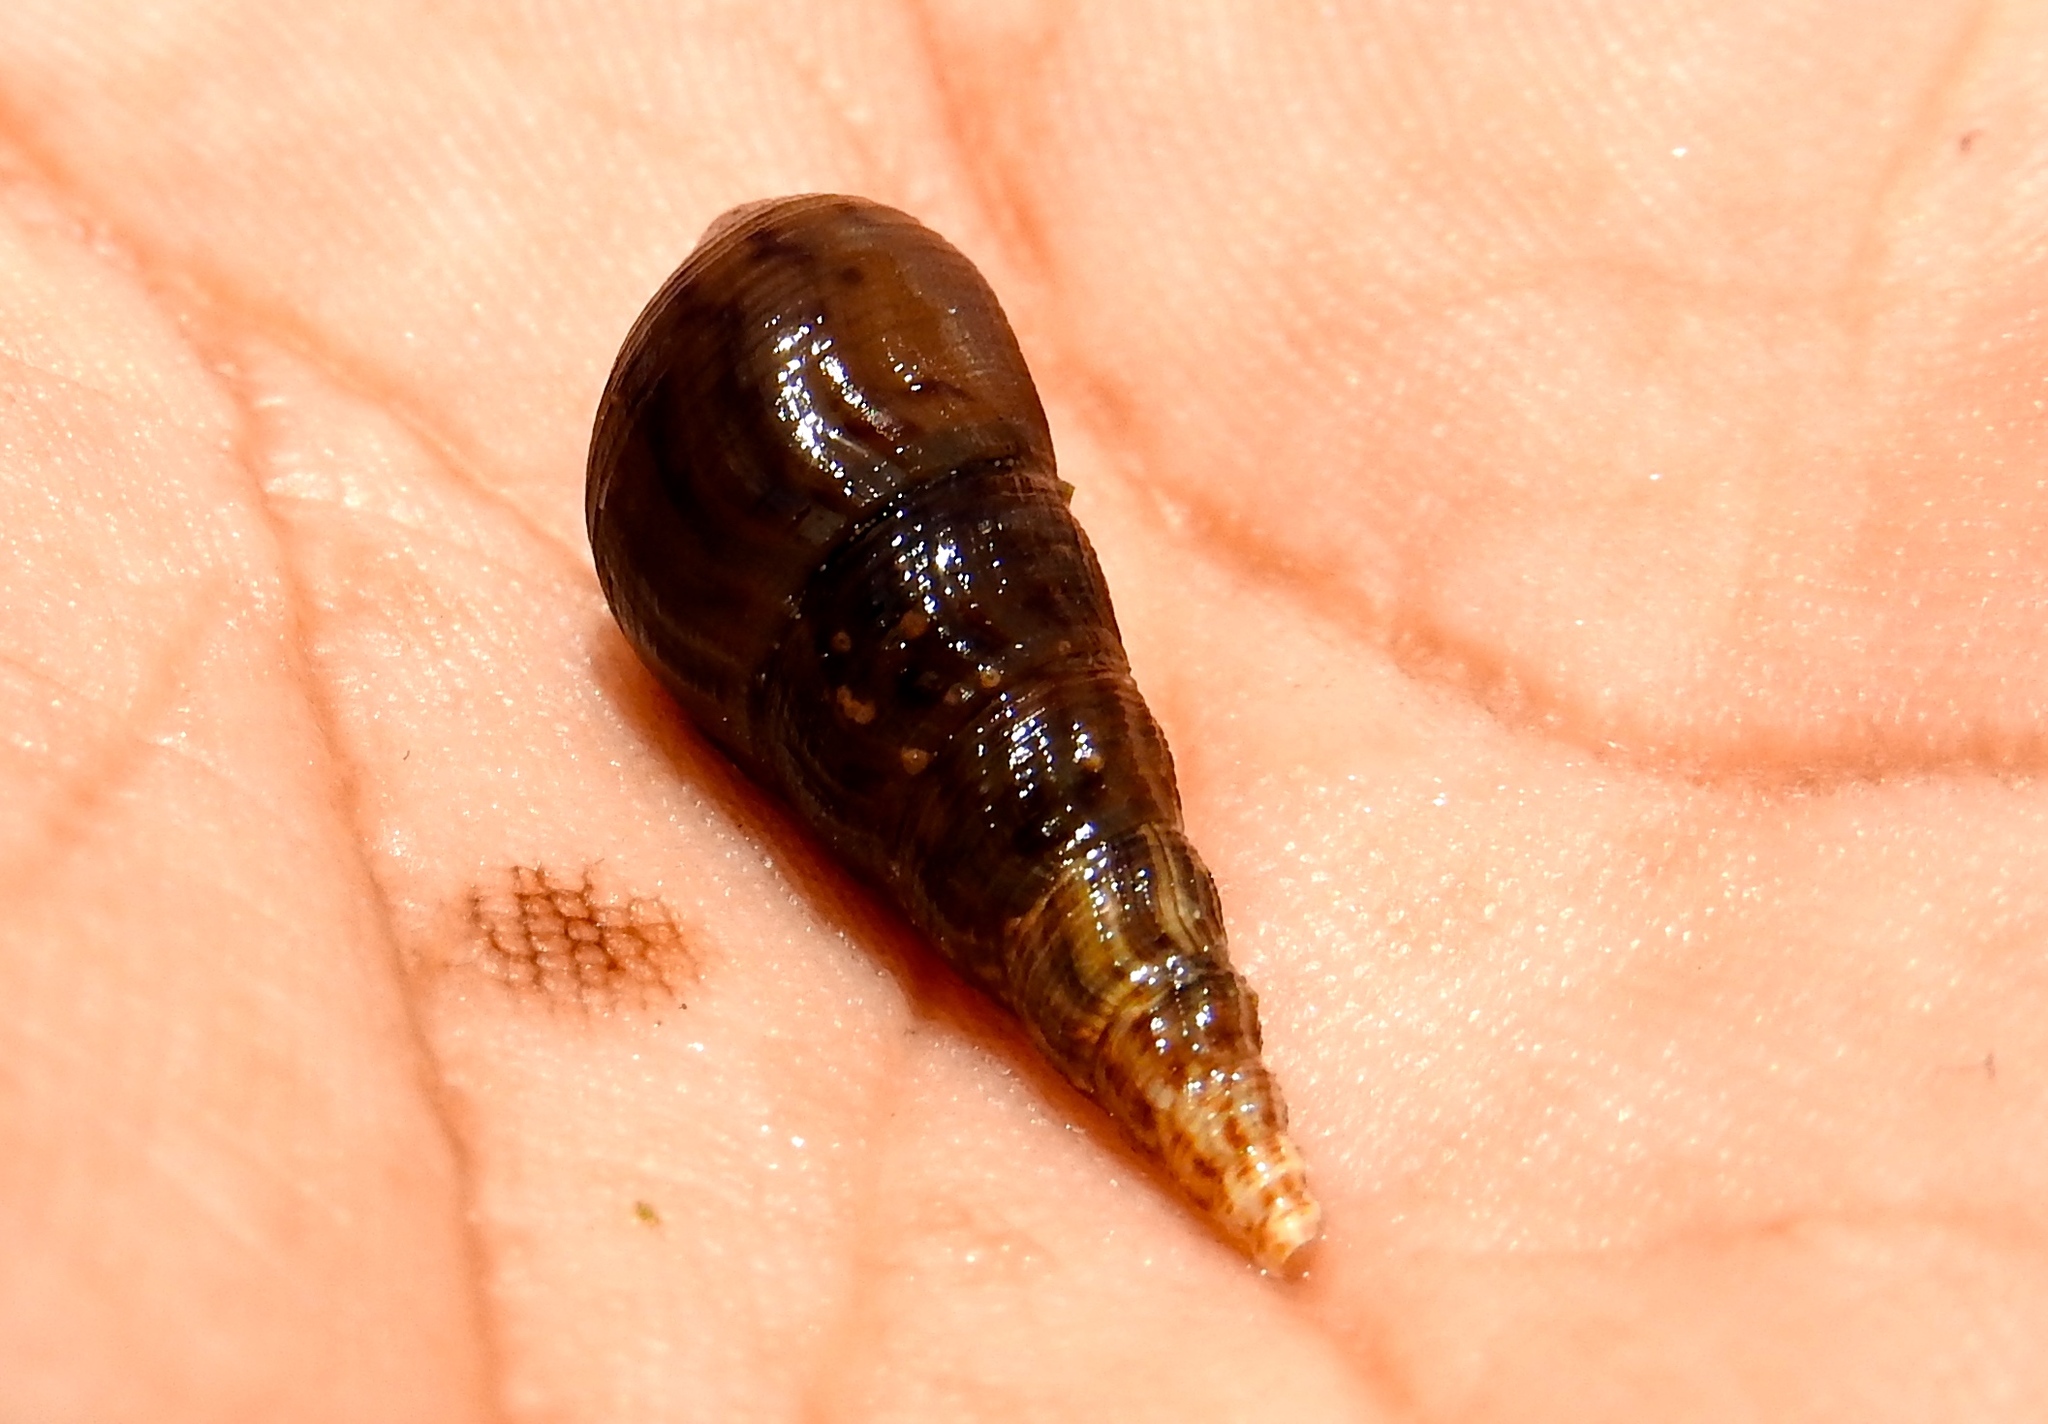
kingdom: Animalia
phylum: Mollusca
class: Gastropoda
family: Thiaridae
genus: Melanoides
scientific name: Melanoides tuberculata
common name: Red-rim melania
